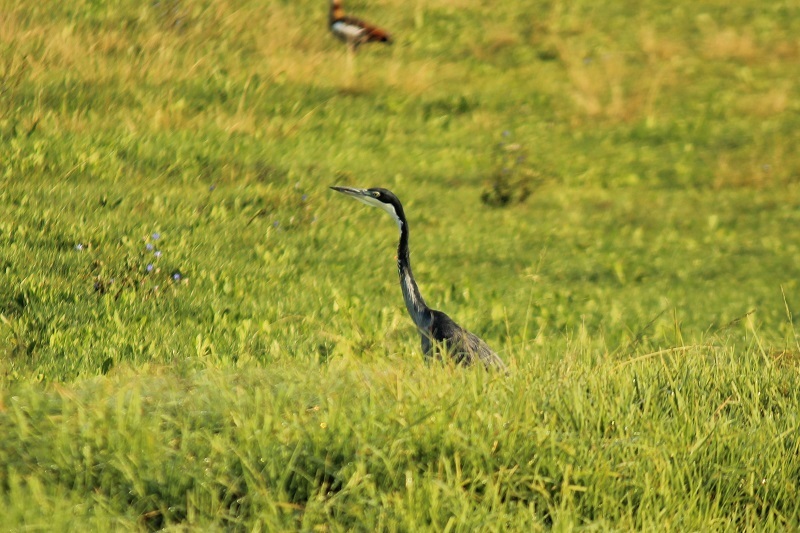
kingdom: Animalia
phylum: Chordata
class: Aves
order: Pelecaniformes
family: Ardeidae
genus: Ardea
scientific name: Ardea melanocephala
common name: Black-headed heron
